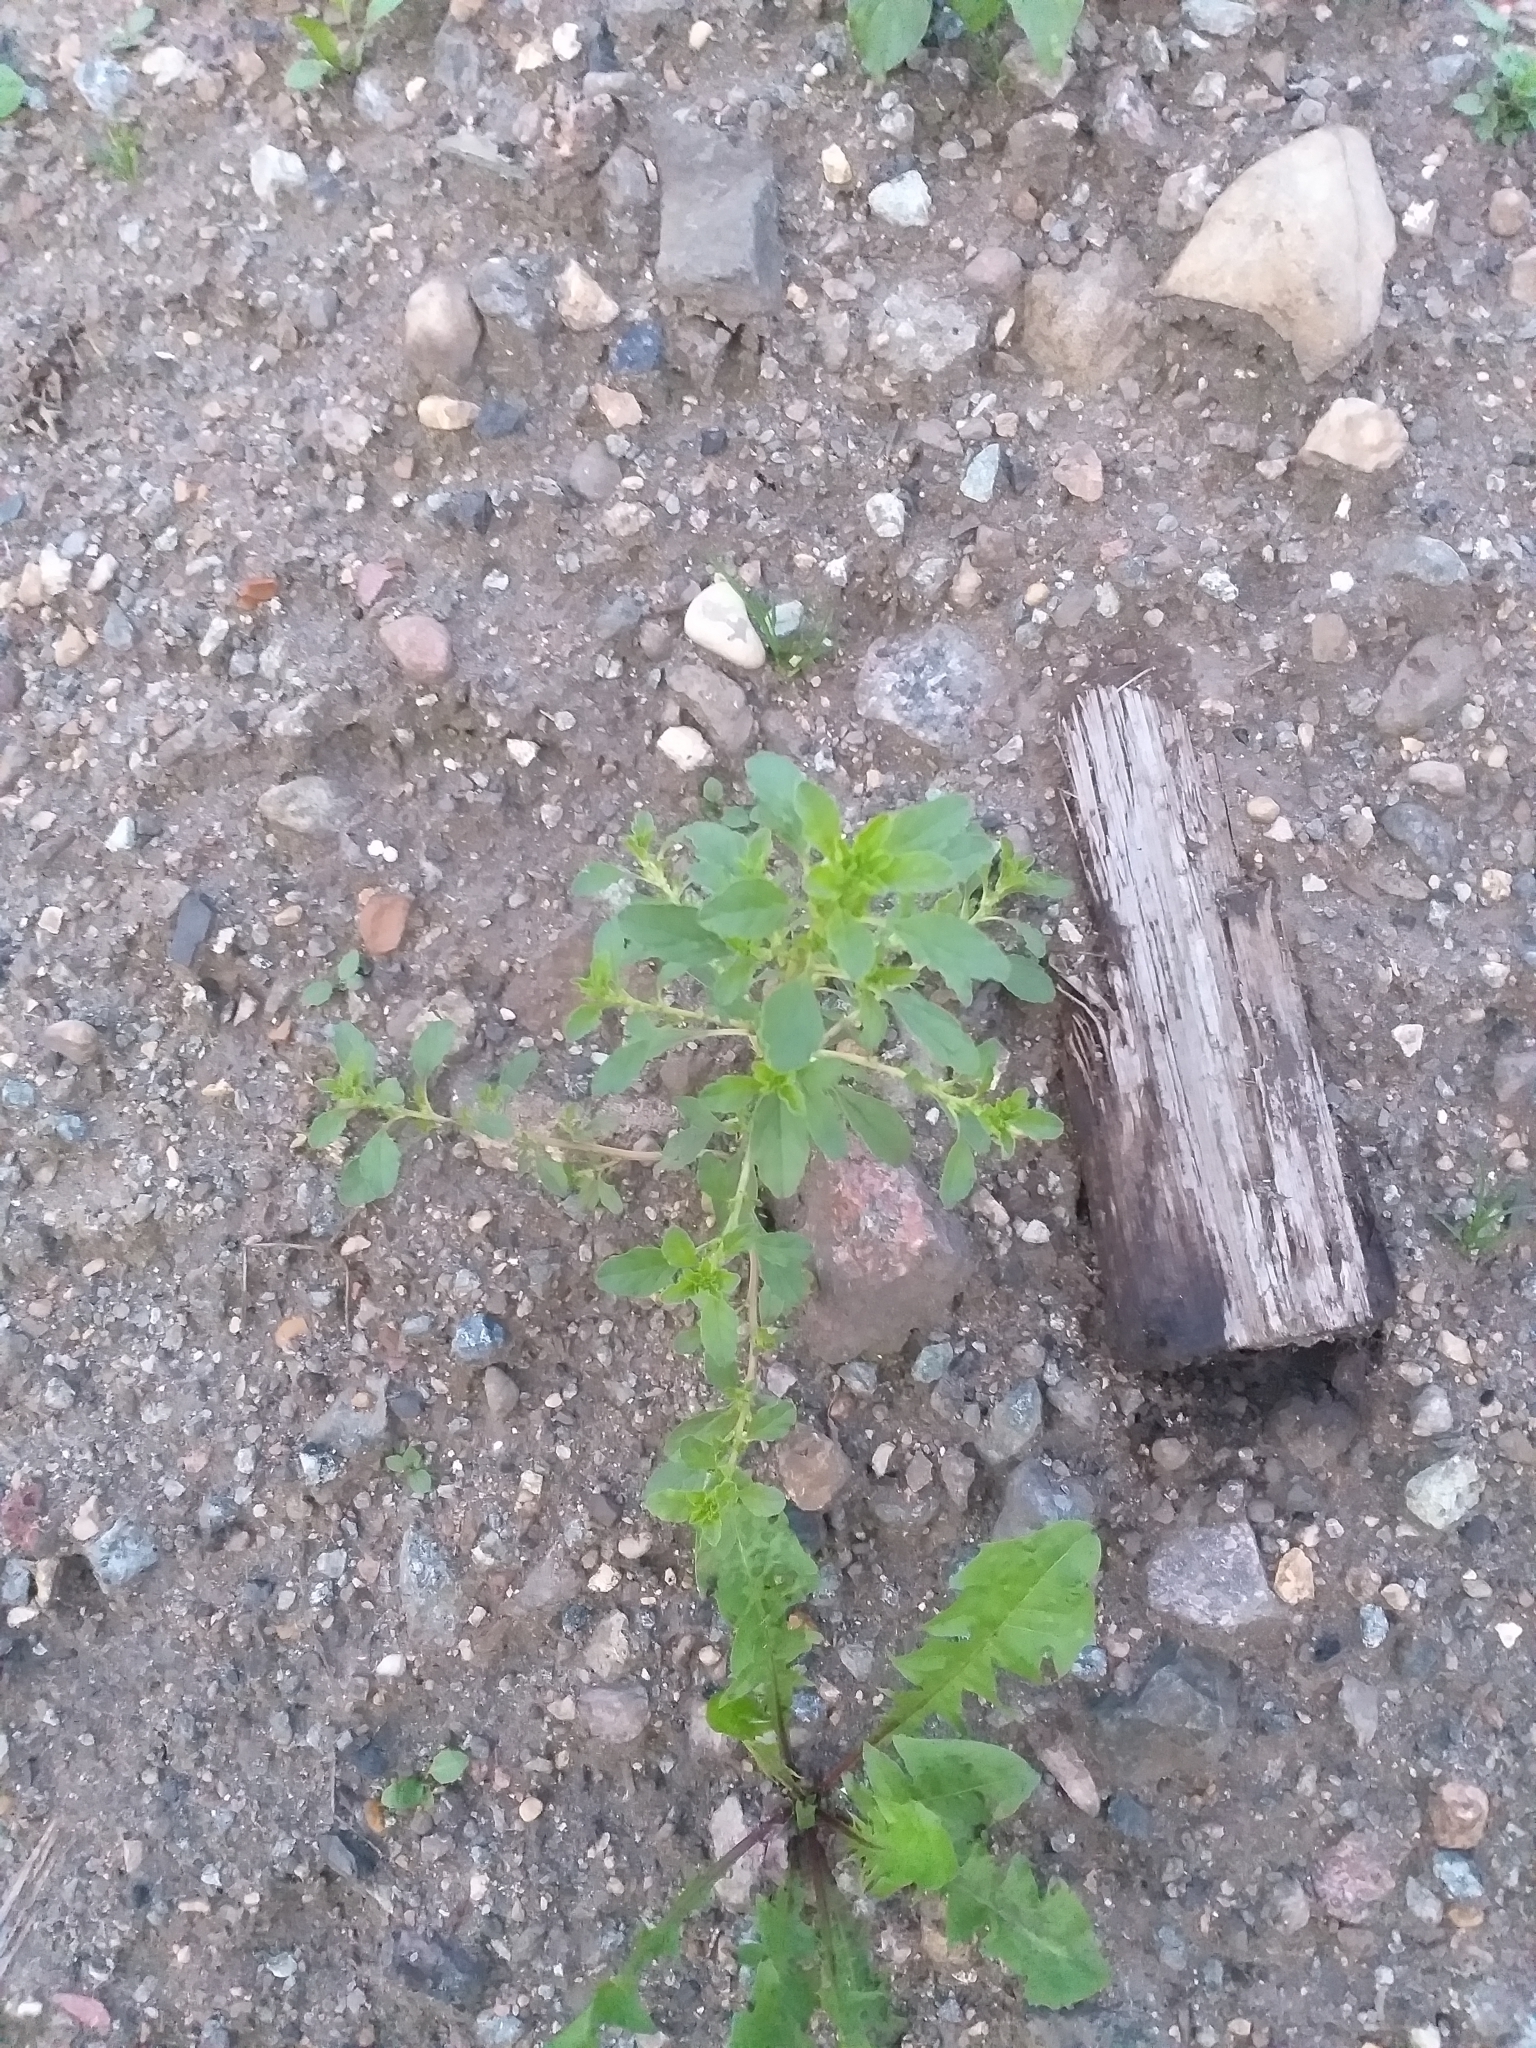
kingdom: Plantae
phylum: Tracheophyta
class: Magnoliopsida
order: Caryophyllales
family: Amaranthaceae
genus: Amaranthus
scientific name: Amaranthus albus
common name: White pigweed
